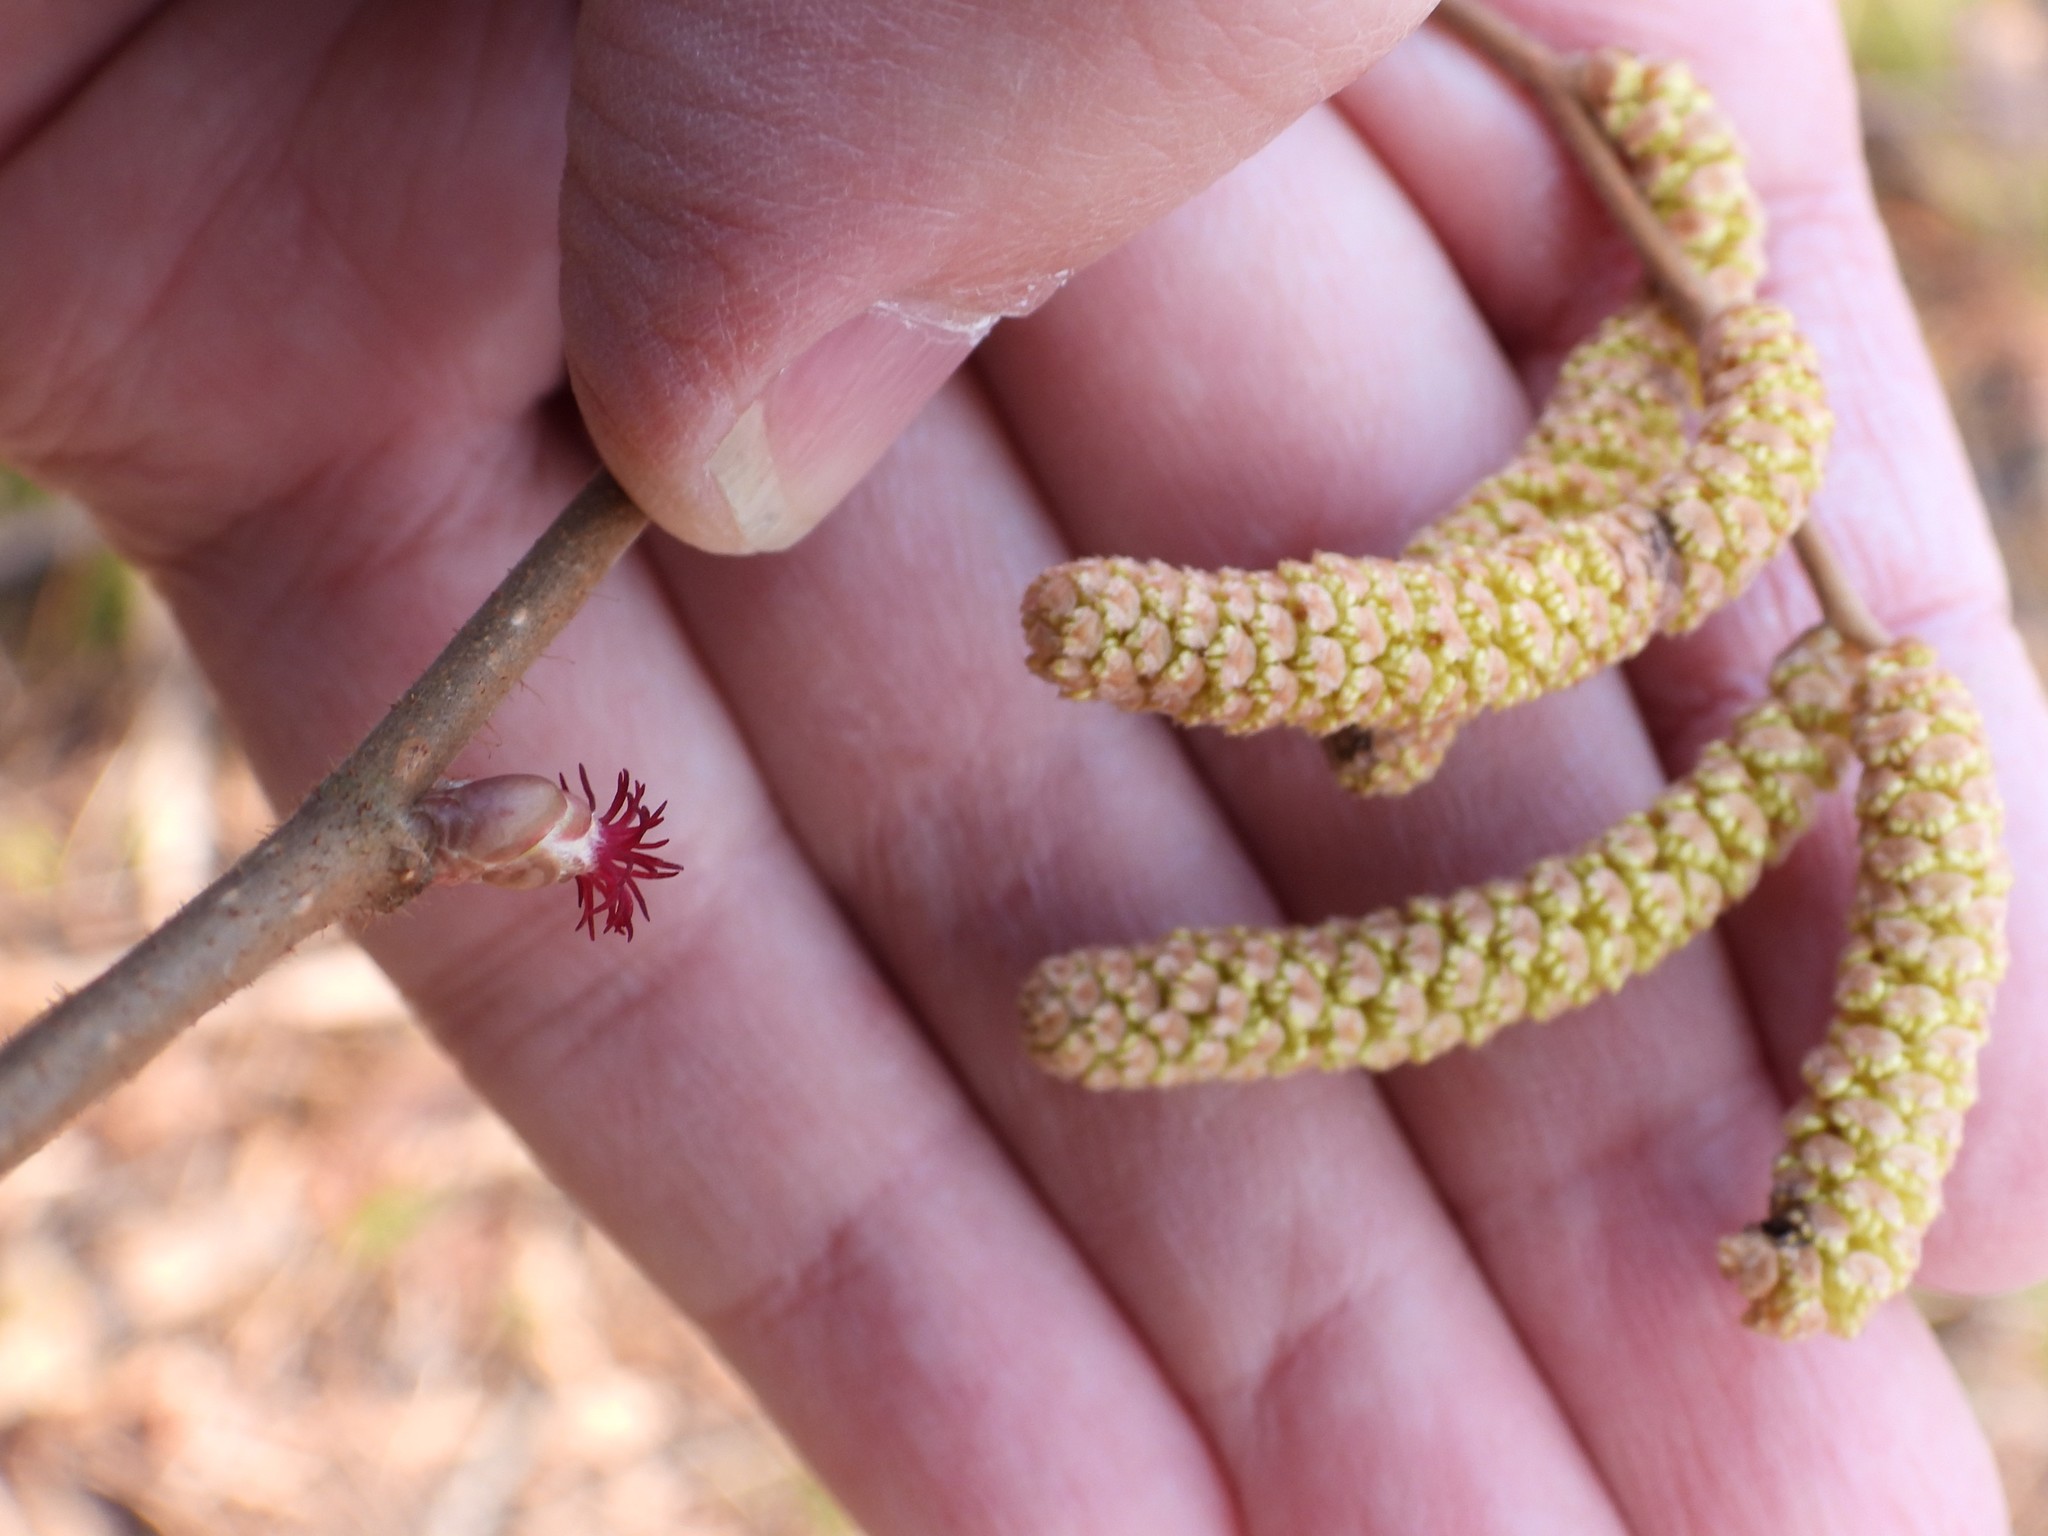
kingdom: Plantae
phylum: Tracheophyta
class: Magnoliopsida
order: Fagales
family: Betulaceae
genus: Corylus
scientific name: Corylus avellana
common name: European hazel
